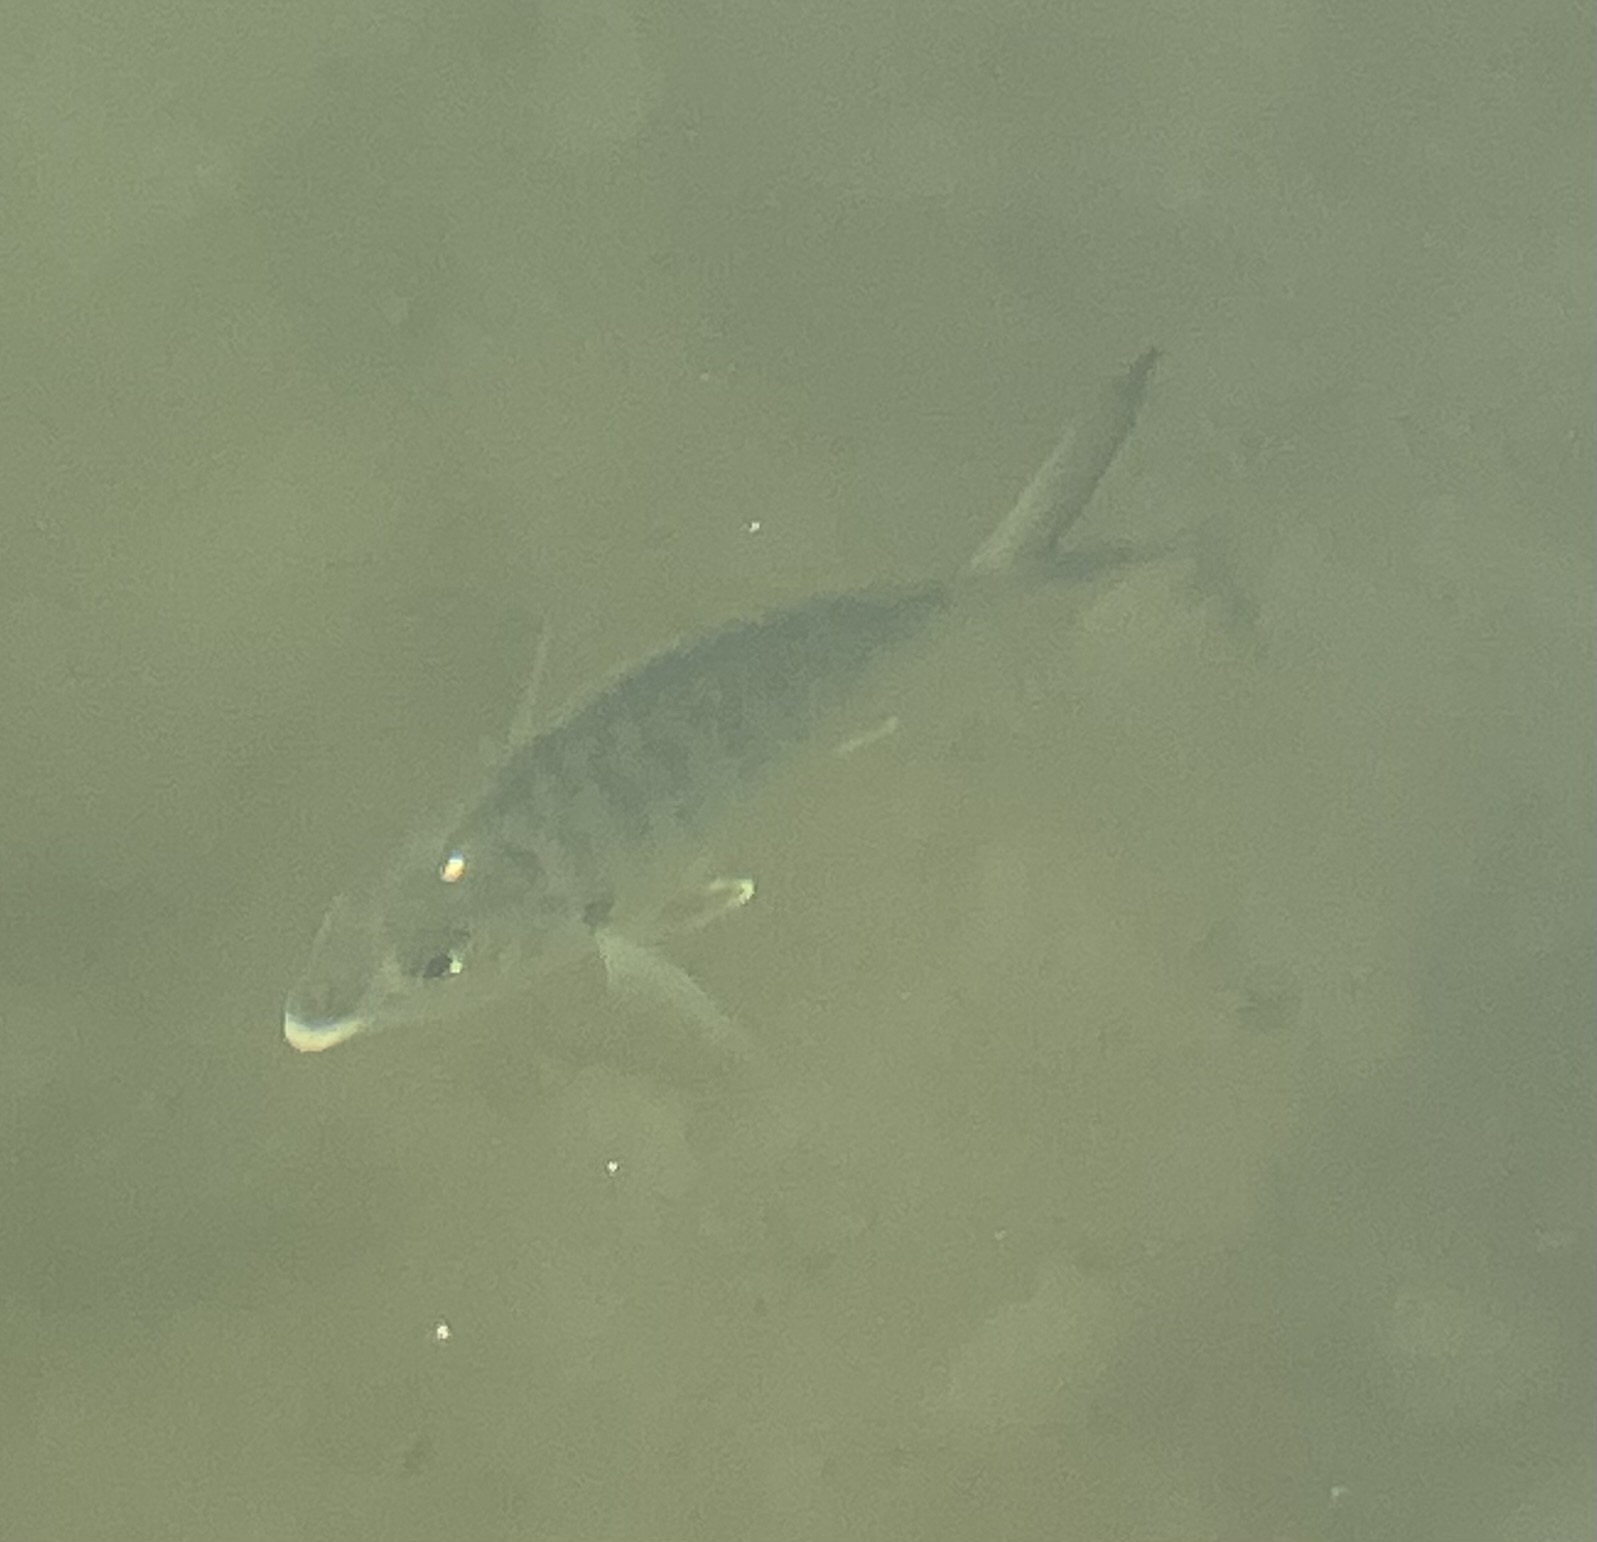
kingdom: Animalia
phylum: Chordata
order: Perciformes
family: Gerreidae
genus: Gerres
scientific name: Gerres cinereus
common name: Hedow
